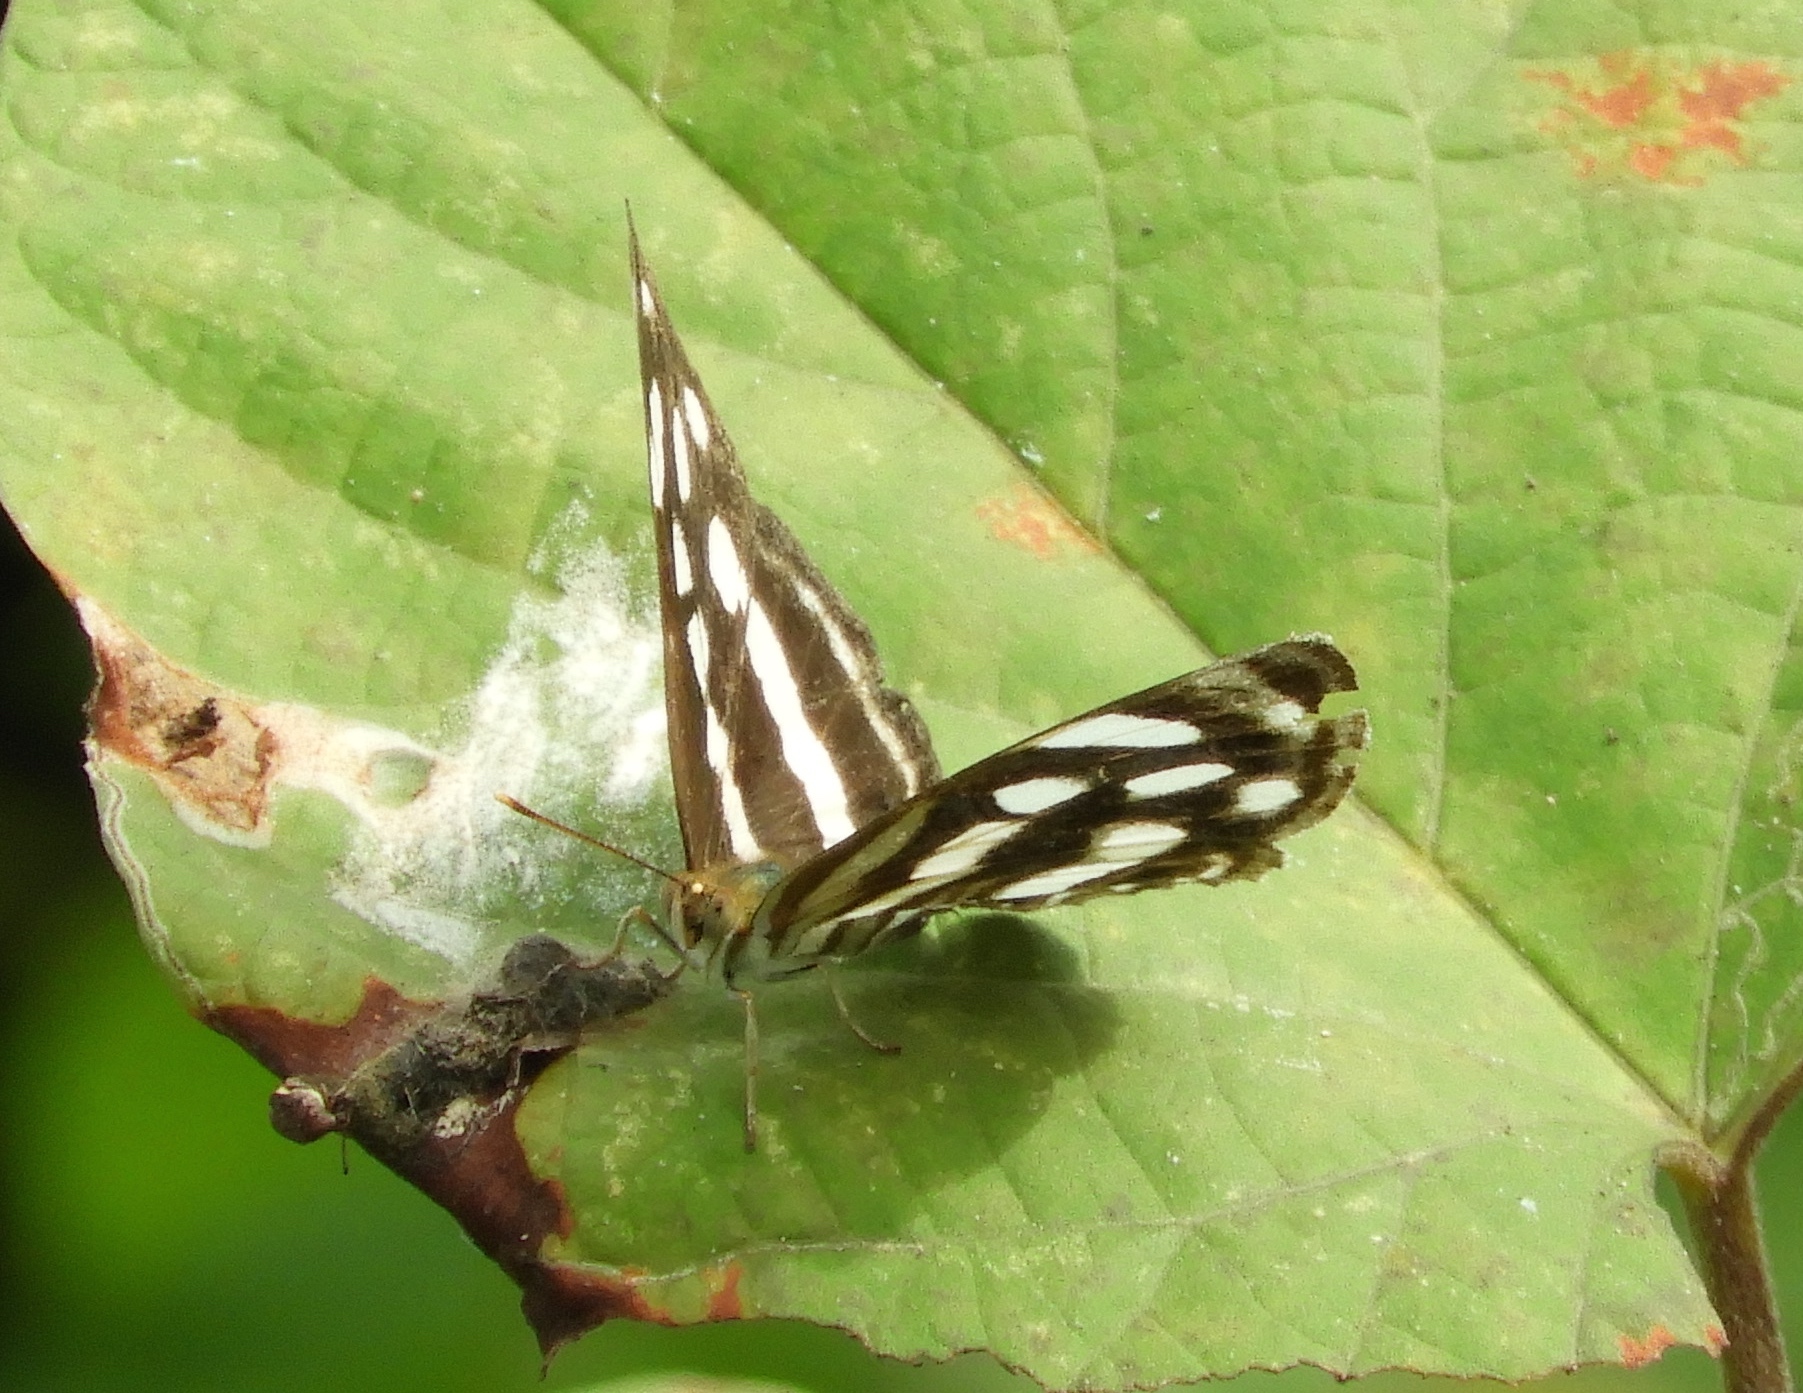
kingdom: Animalia
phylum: Arthropoda
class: Insecta
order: Lepidoptera
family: Nymphalidae
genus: Dynamine
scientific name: Dynamine mylitta
